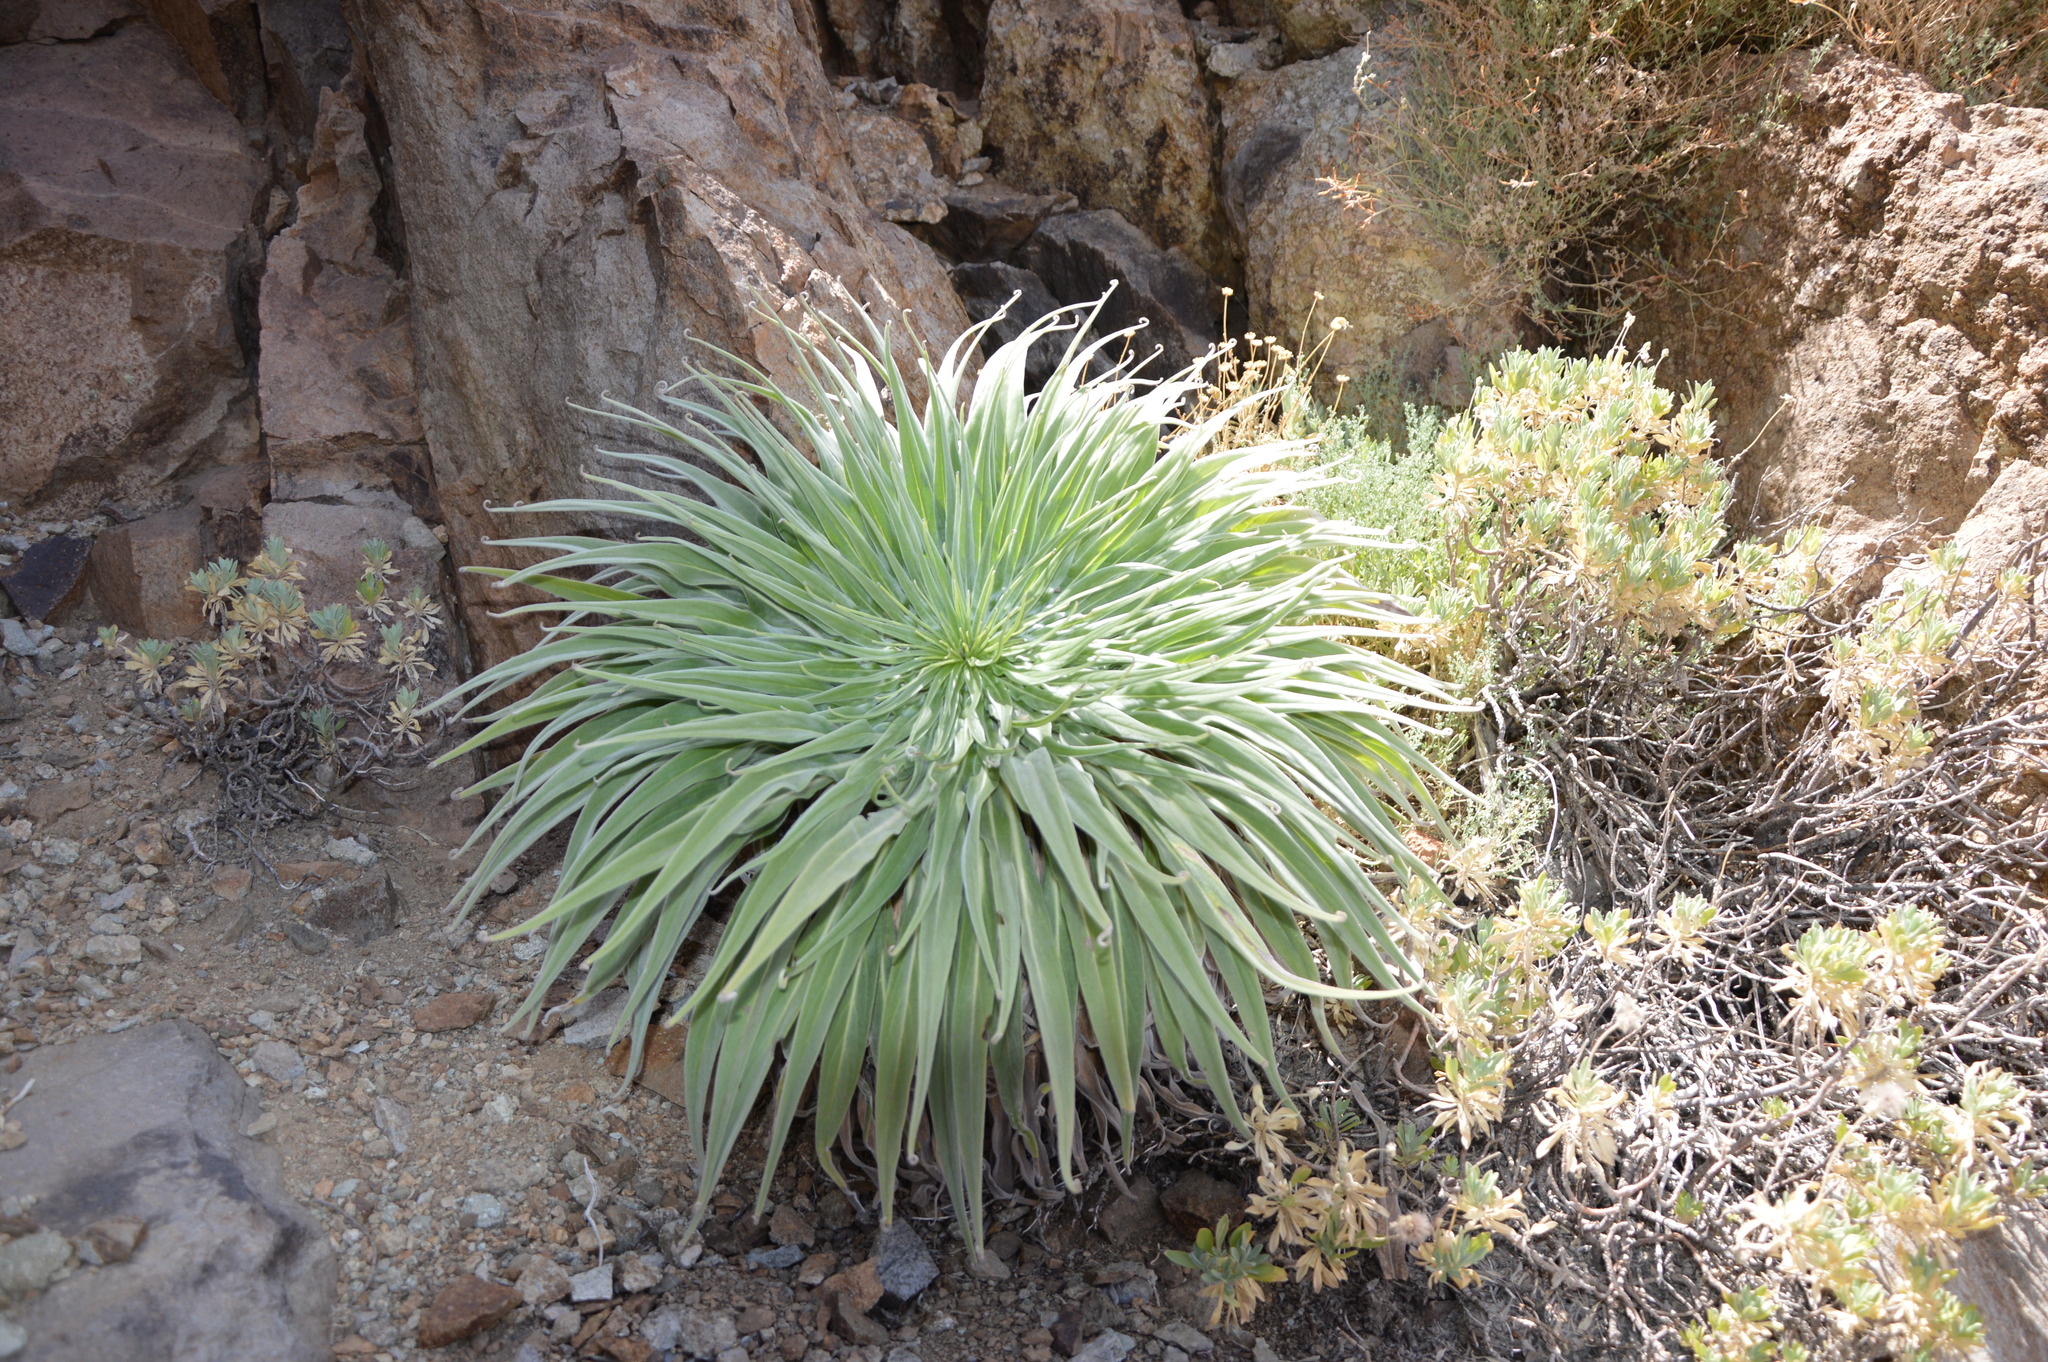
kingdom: Plantae
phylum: Tracheophyta
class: Magnoliopsida
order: Boraginales
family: Boraginaceae
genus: Echium
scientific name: Echium wildpretii
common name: Tower-of-jewels
